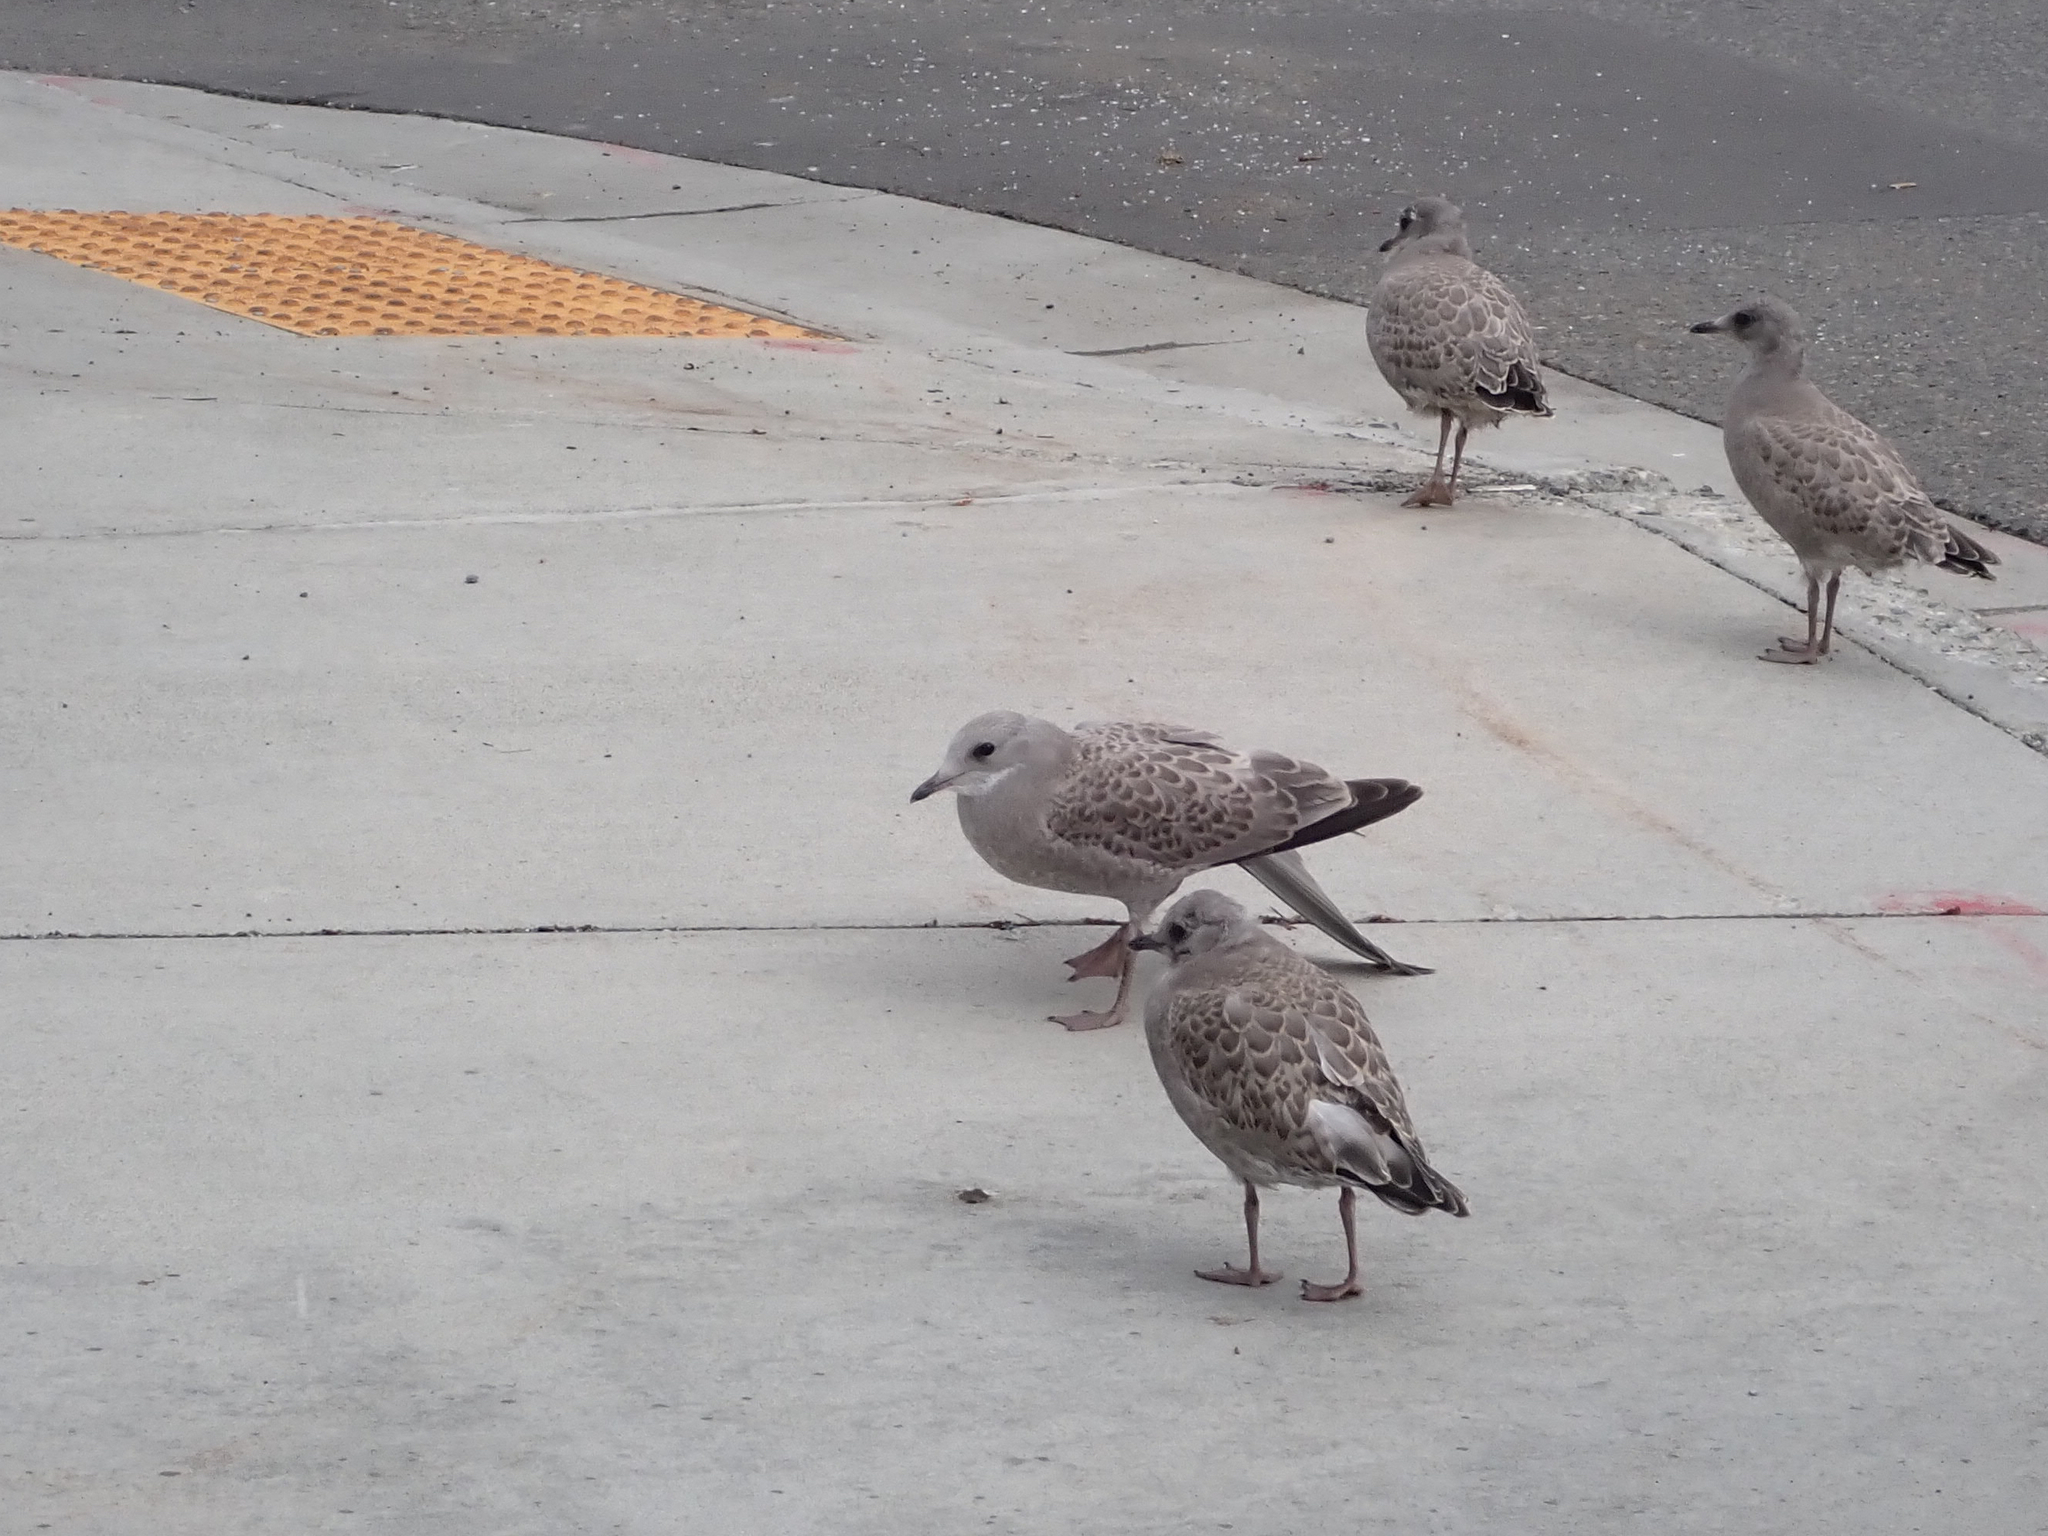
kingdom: Animalia
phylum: Chordata
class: Aves
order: Charadriiformes
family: Laridae
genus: Larus
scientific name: Larus brachyrhynchus
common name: Short-billed gull
